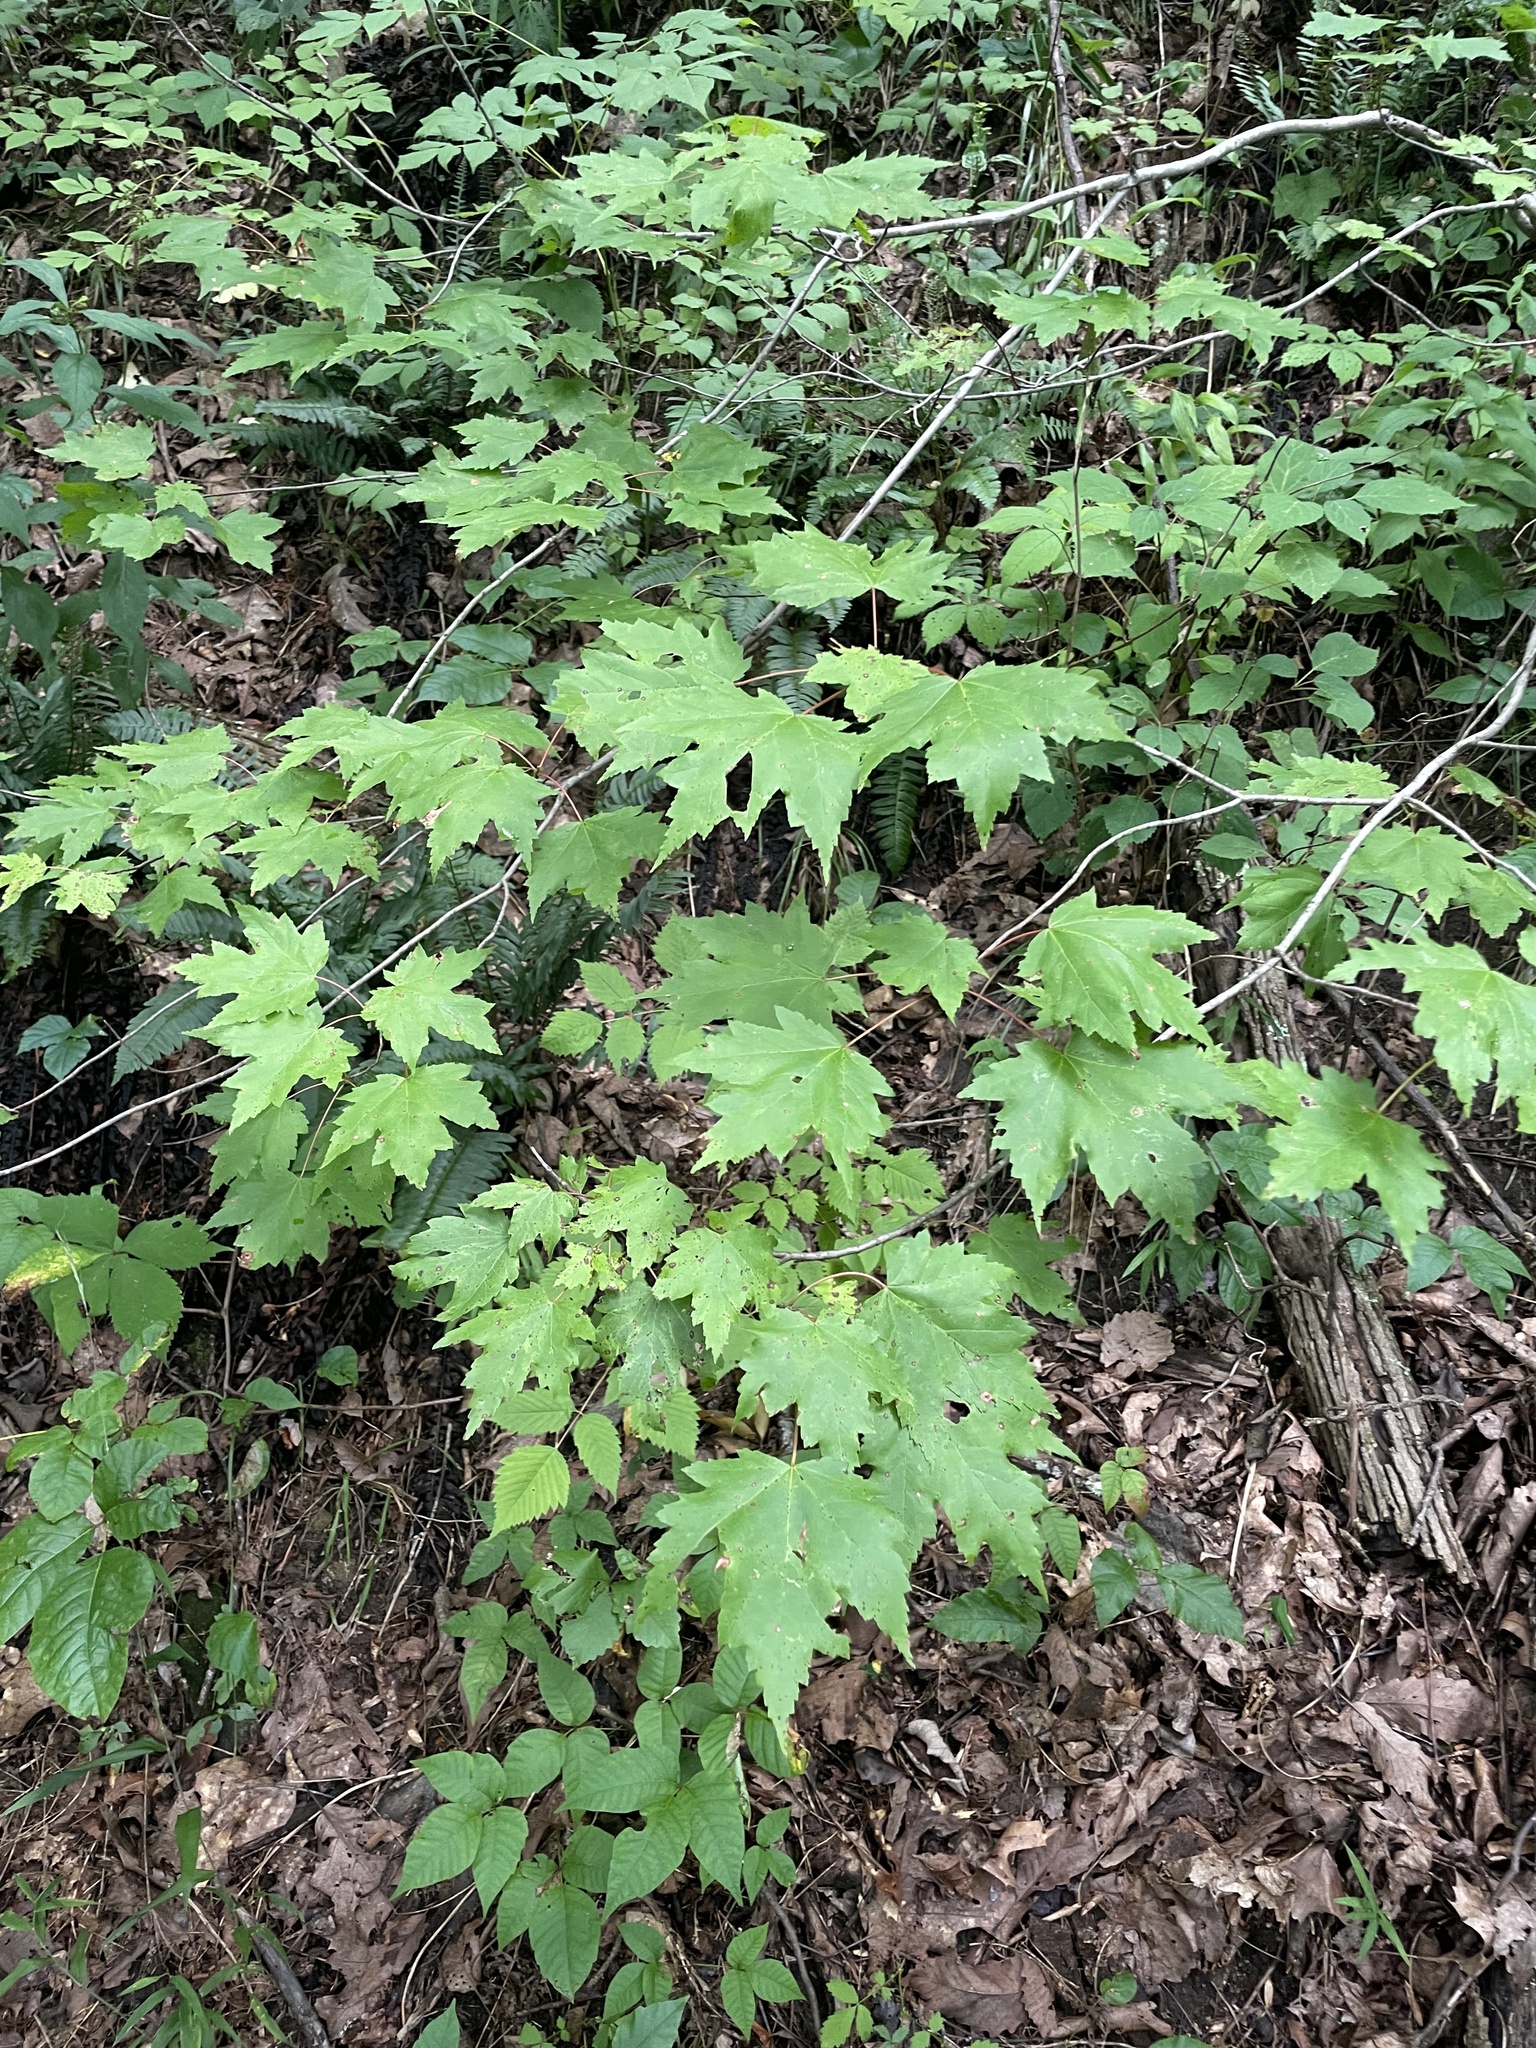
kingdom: Plantae
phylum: Tracheophyta
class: Magnoliopsida
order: Sapindales
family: Sapindaceae
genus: Acer
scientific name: Acer rubrum
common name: Red maple
